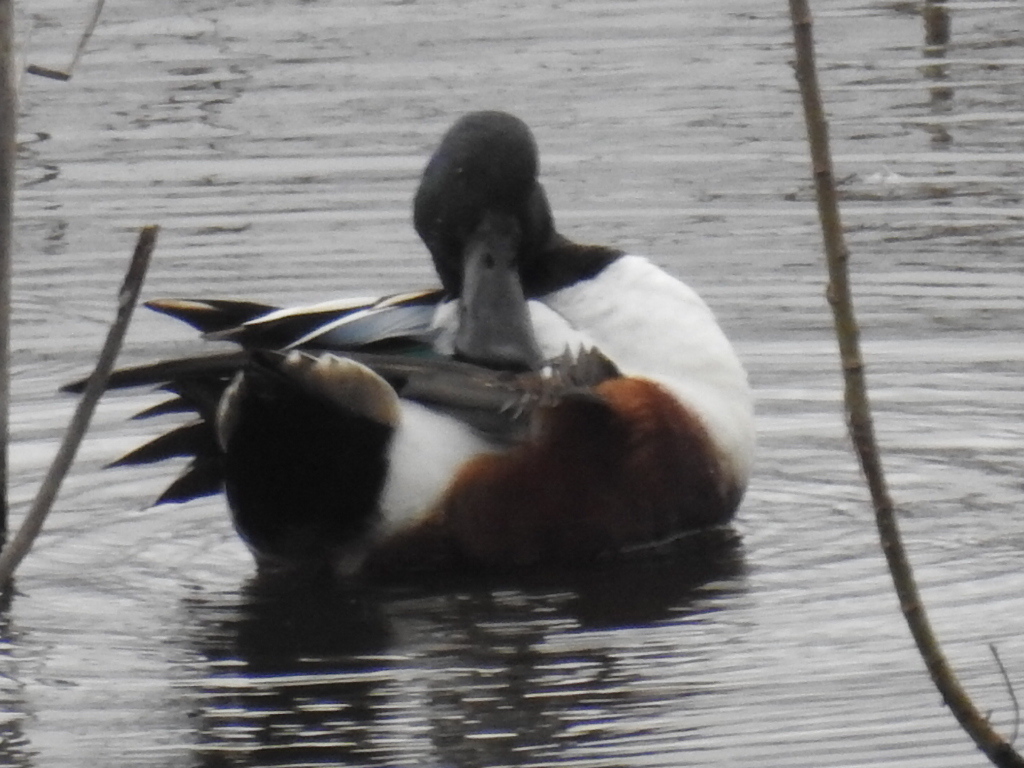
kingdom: Animalia
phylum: Chordata
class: Aves
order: Anseriformes
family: Anatidae
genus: Spatula
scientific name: Spatula clypeata
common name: Northern shoveler
